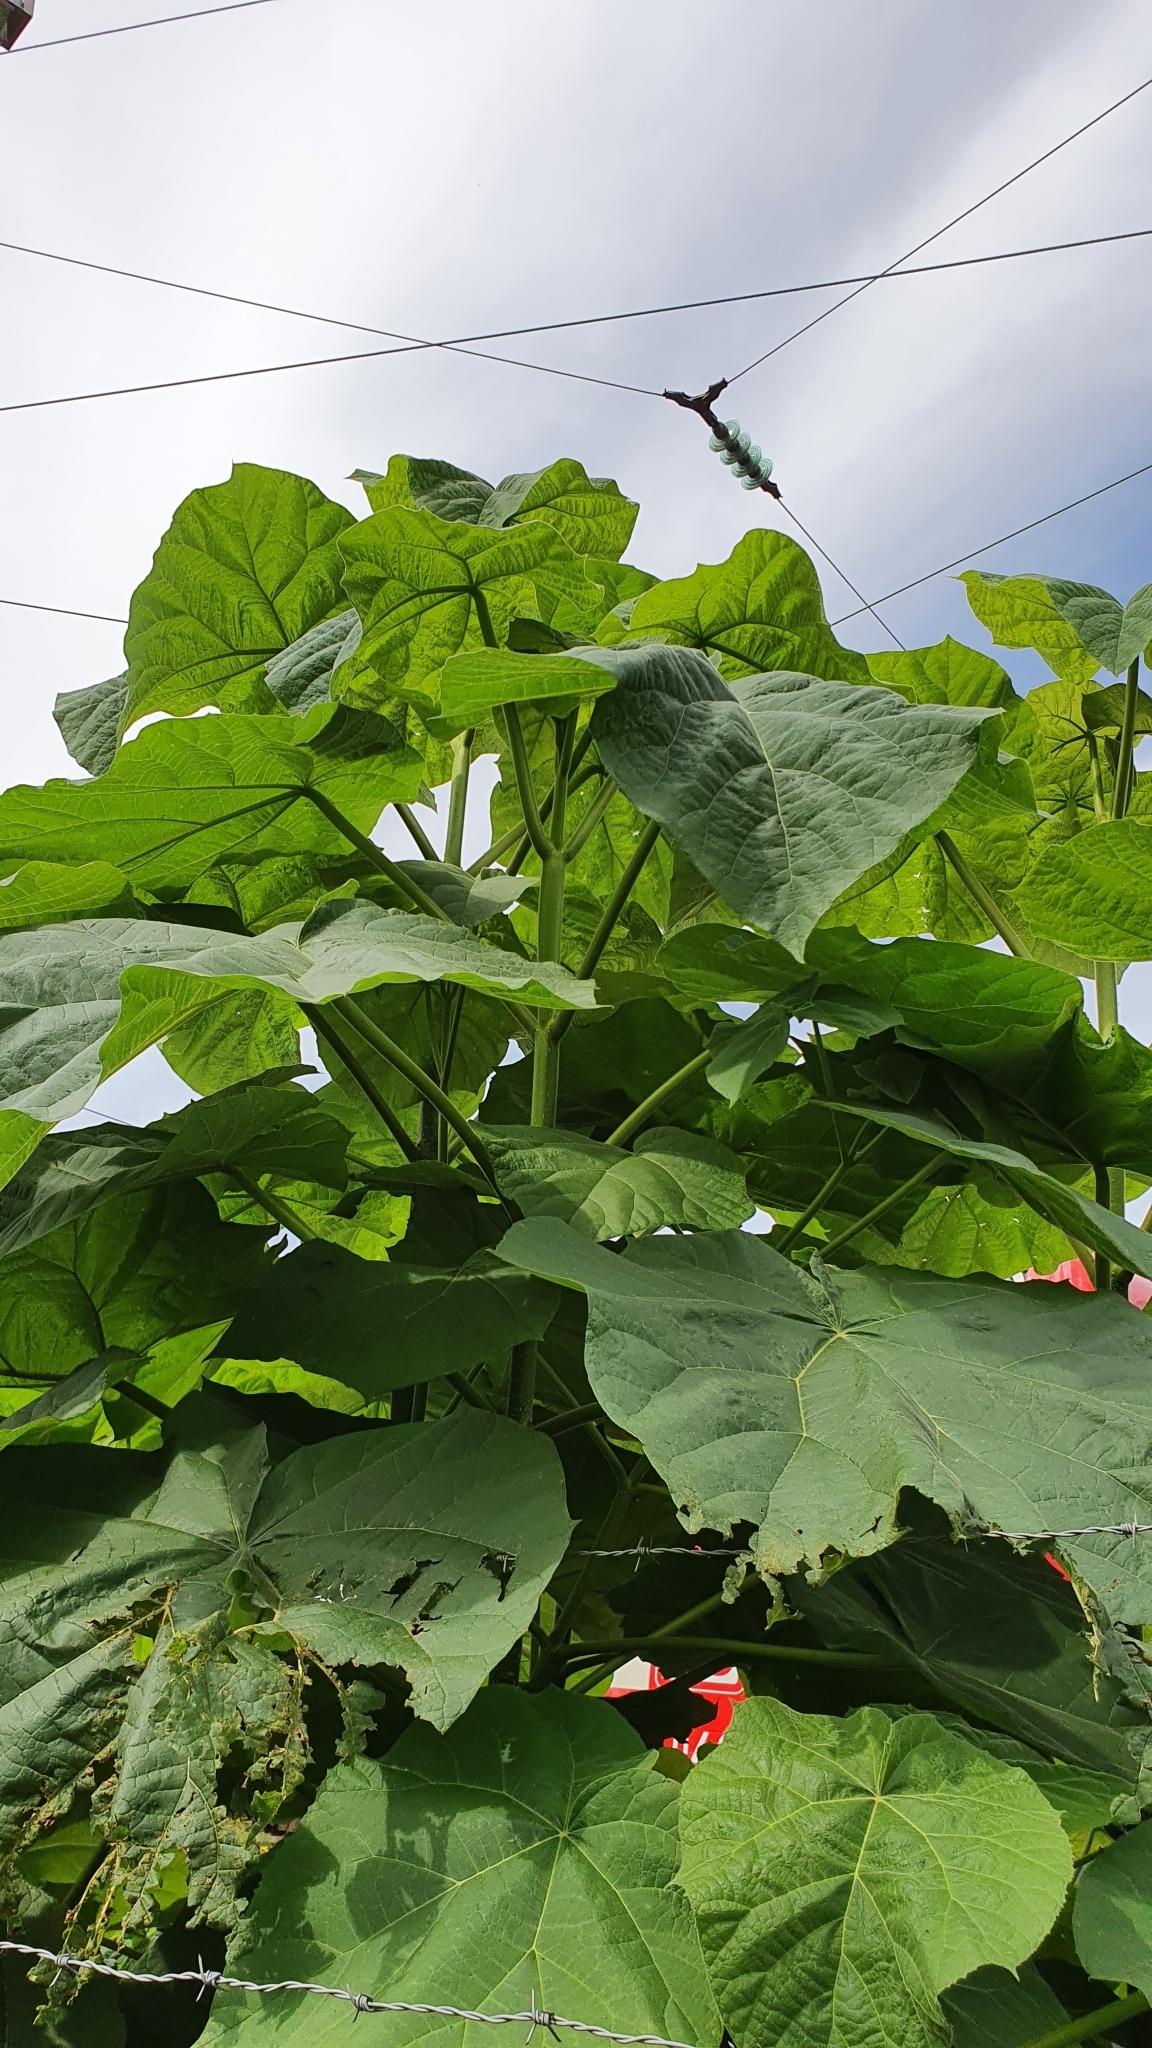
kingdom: Plantae
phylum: Tracheophyta
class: Magnoliopsida
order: Lamiales
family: Paulowniaceae
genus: Paulownia
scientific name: Paulownia tomentosa
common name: Foxglove-tree
